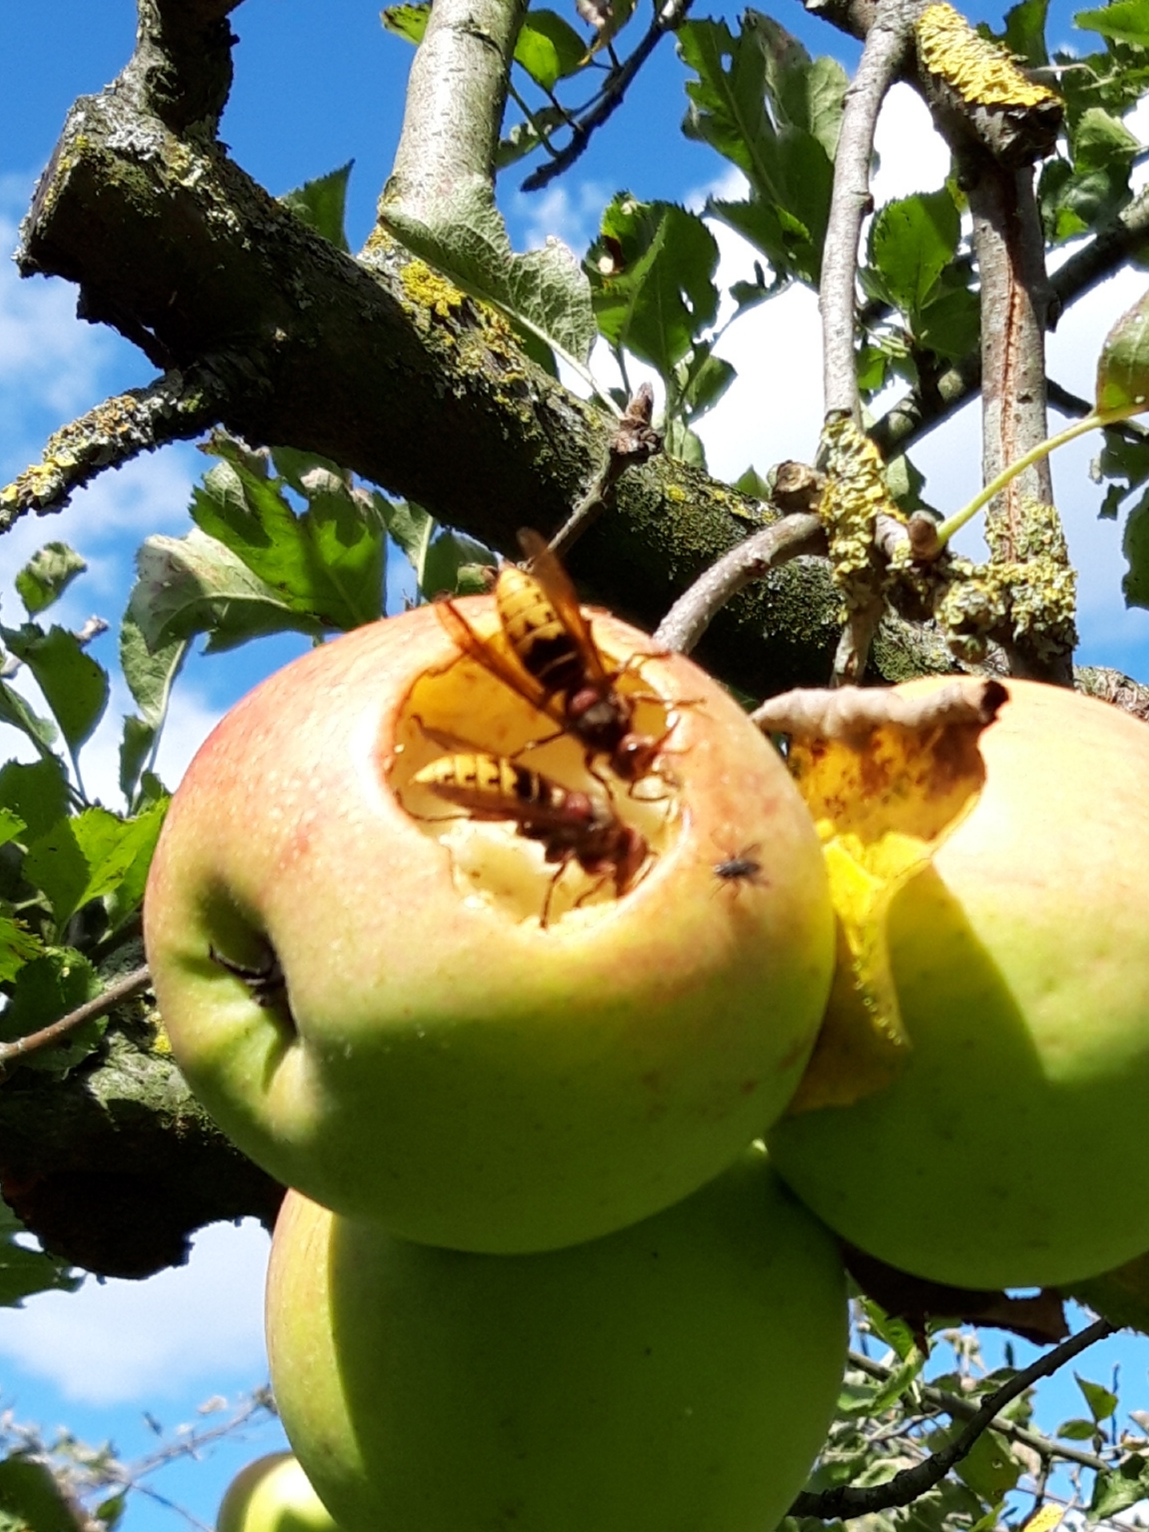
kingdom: Animalia
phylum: Arthropoda
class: Insecta
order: Hymenoptera
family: Vespidae
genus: Vespa
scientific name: Vespa crabro
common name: Hornet
